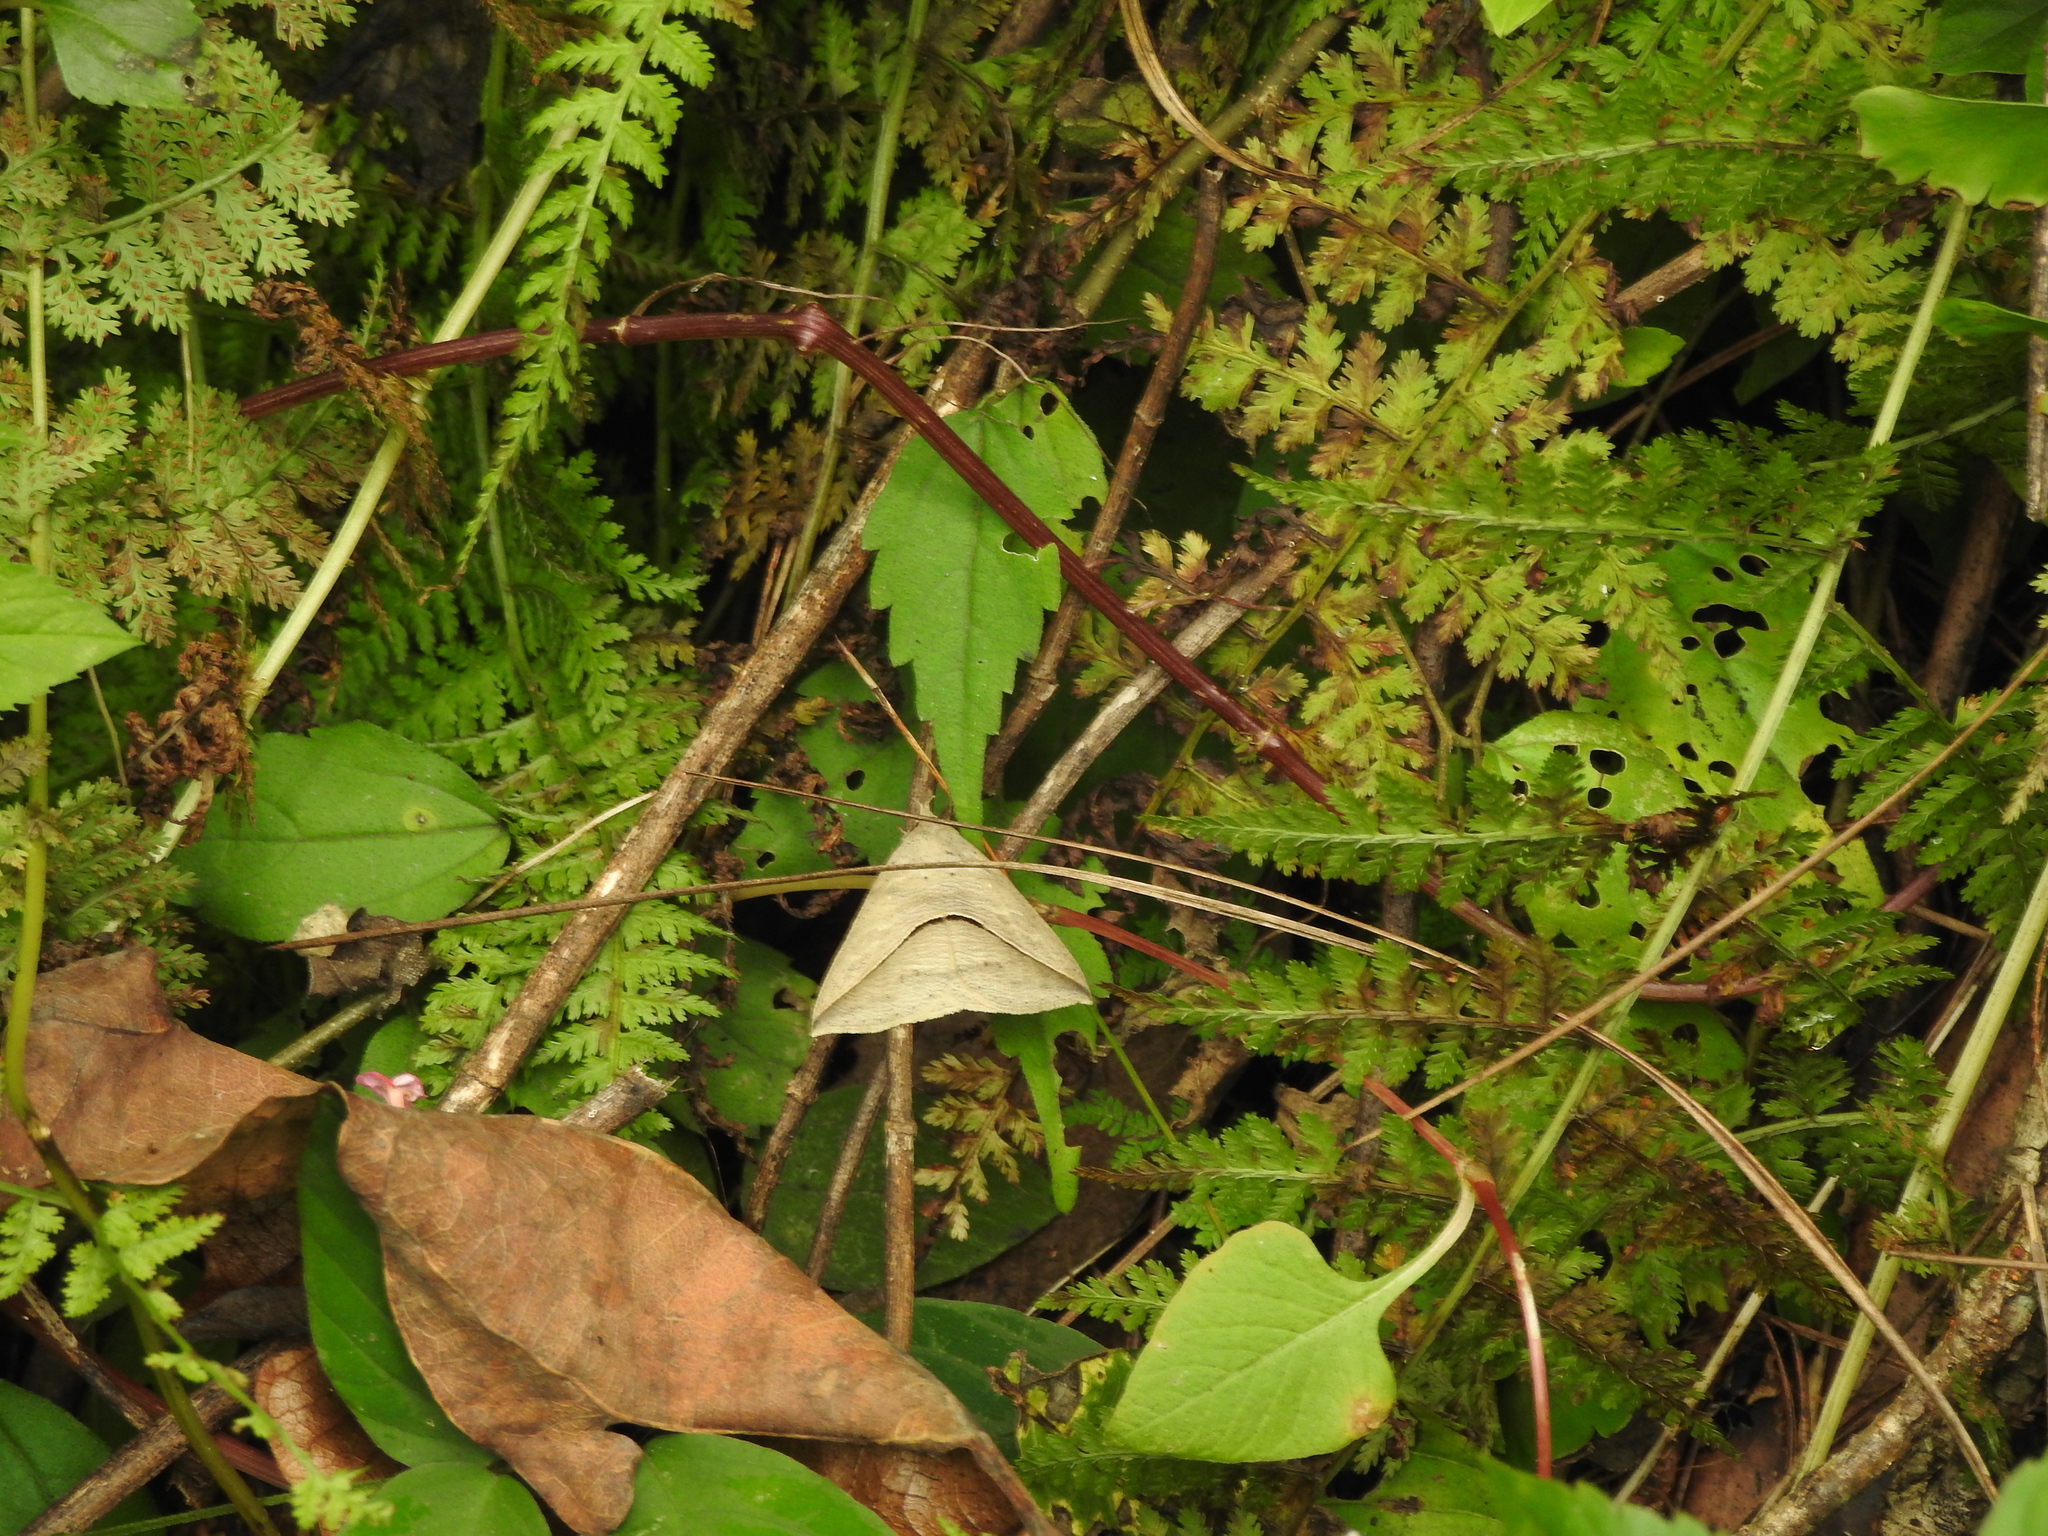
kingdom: Animalia
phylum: Arthropoda
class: Insecta
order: Lepidoptera
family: Erebidae
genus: Dierna
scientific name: Dierna strigata
